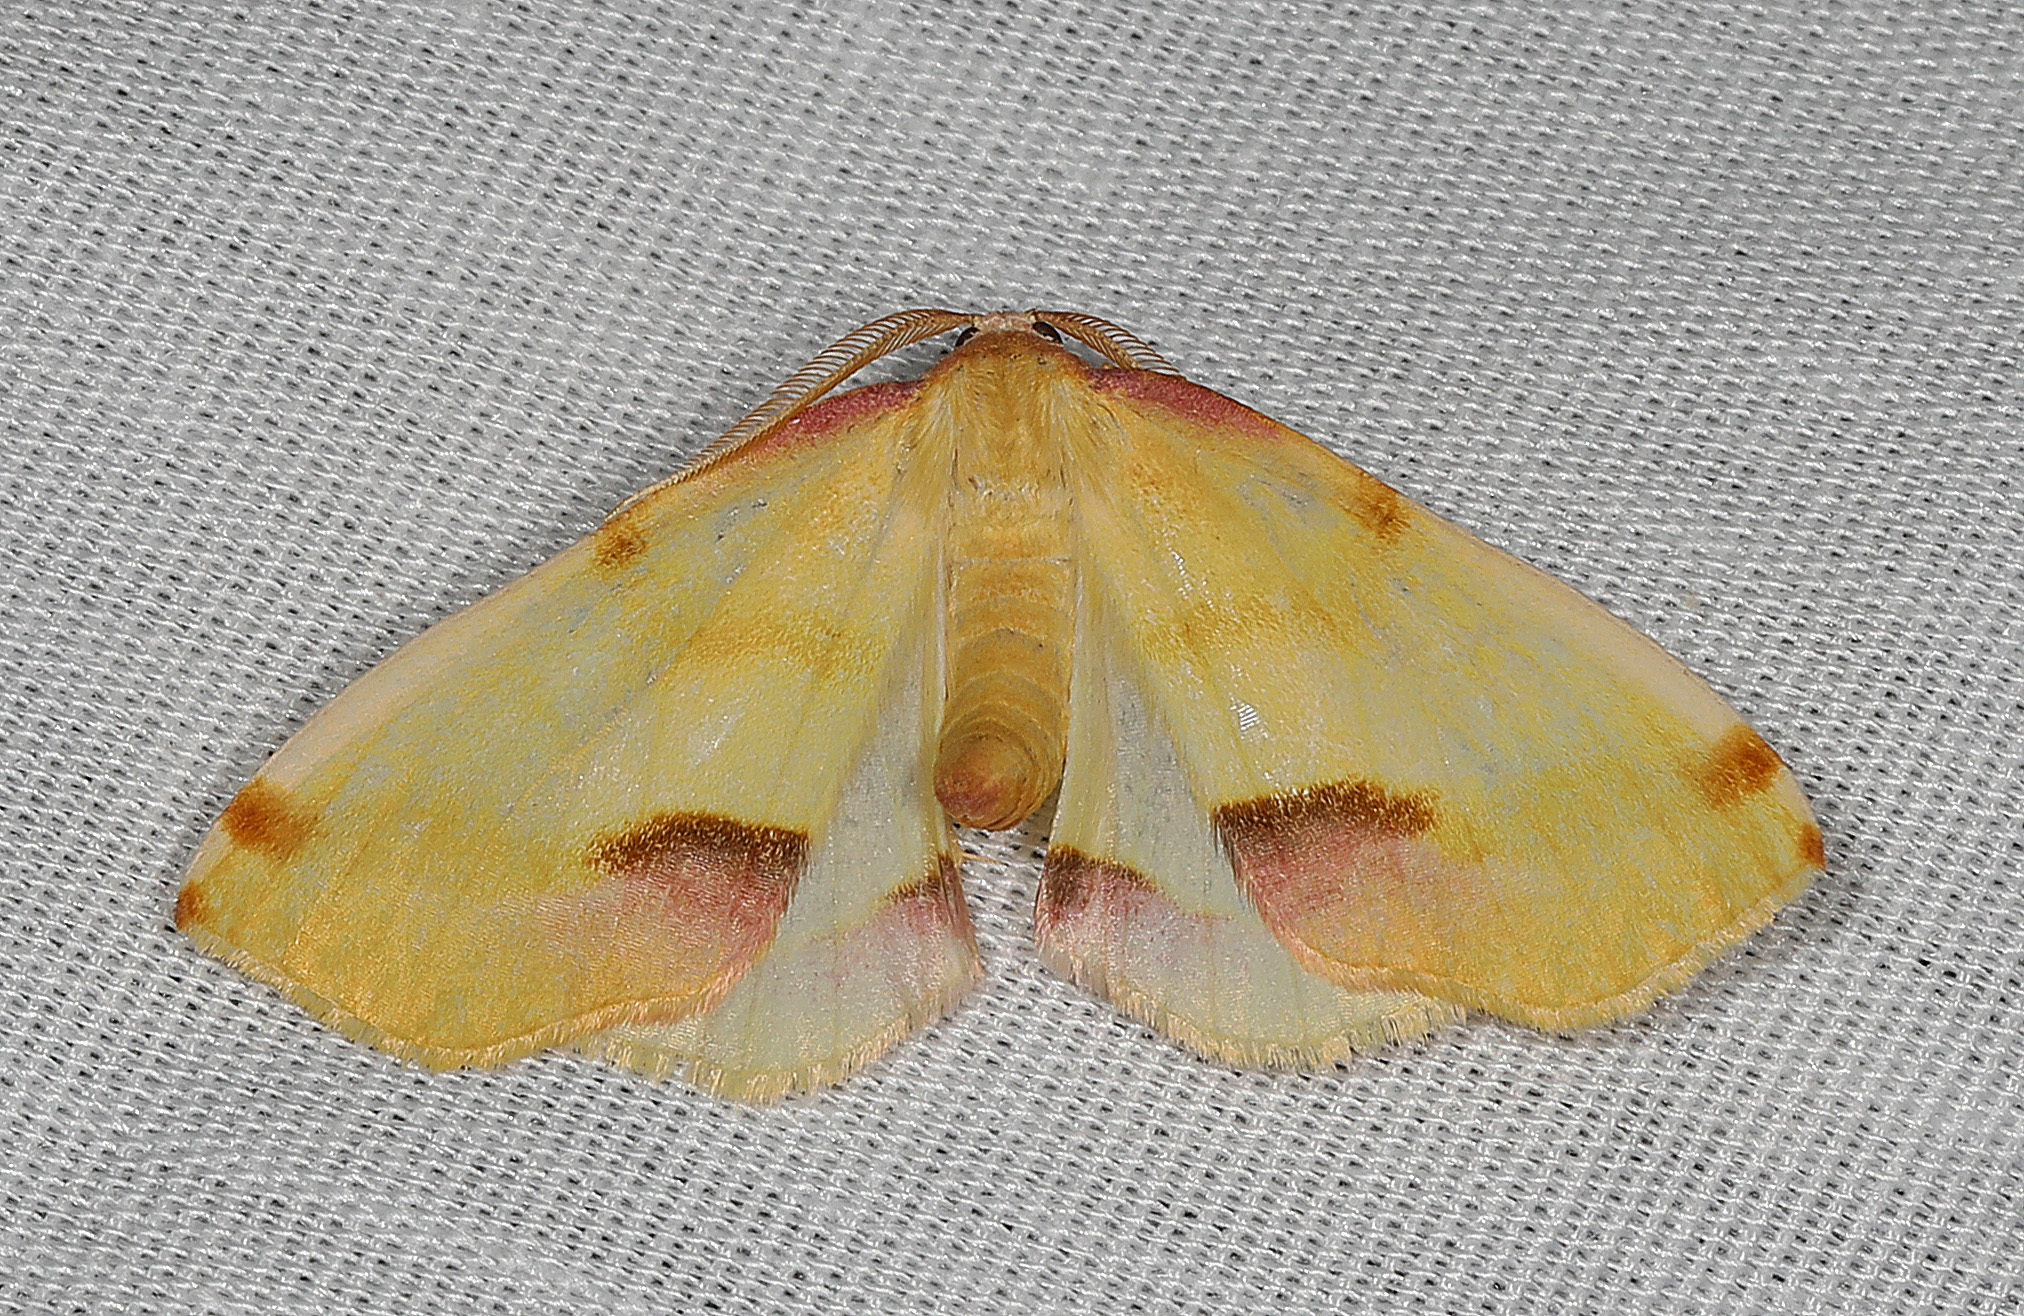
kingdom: Animalia
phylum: Arthropoda
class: Insecta
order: Lepidoptera
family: Geometridae
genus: Plagodis
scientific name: Plagodis serinaria
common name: Lemon plagodis
